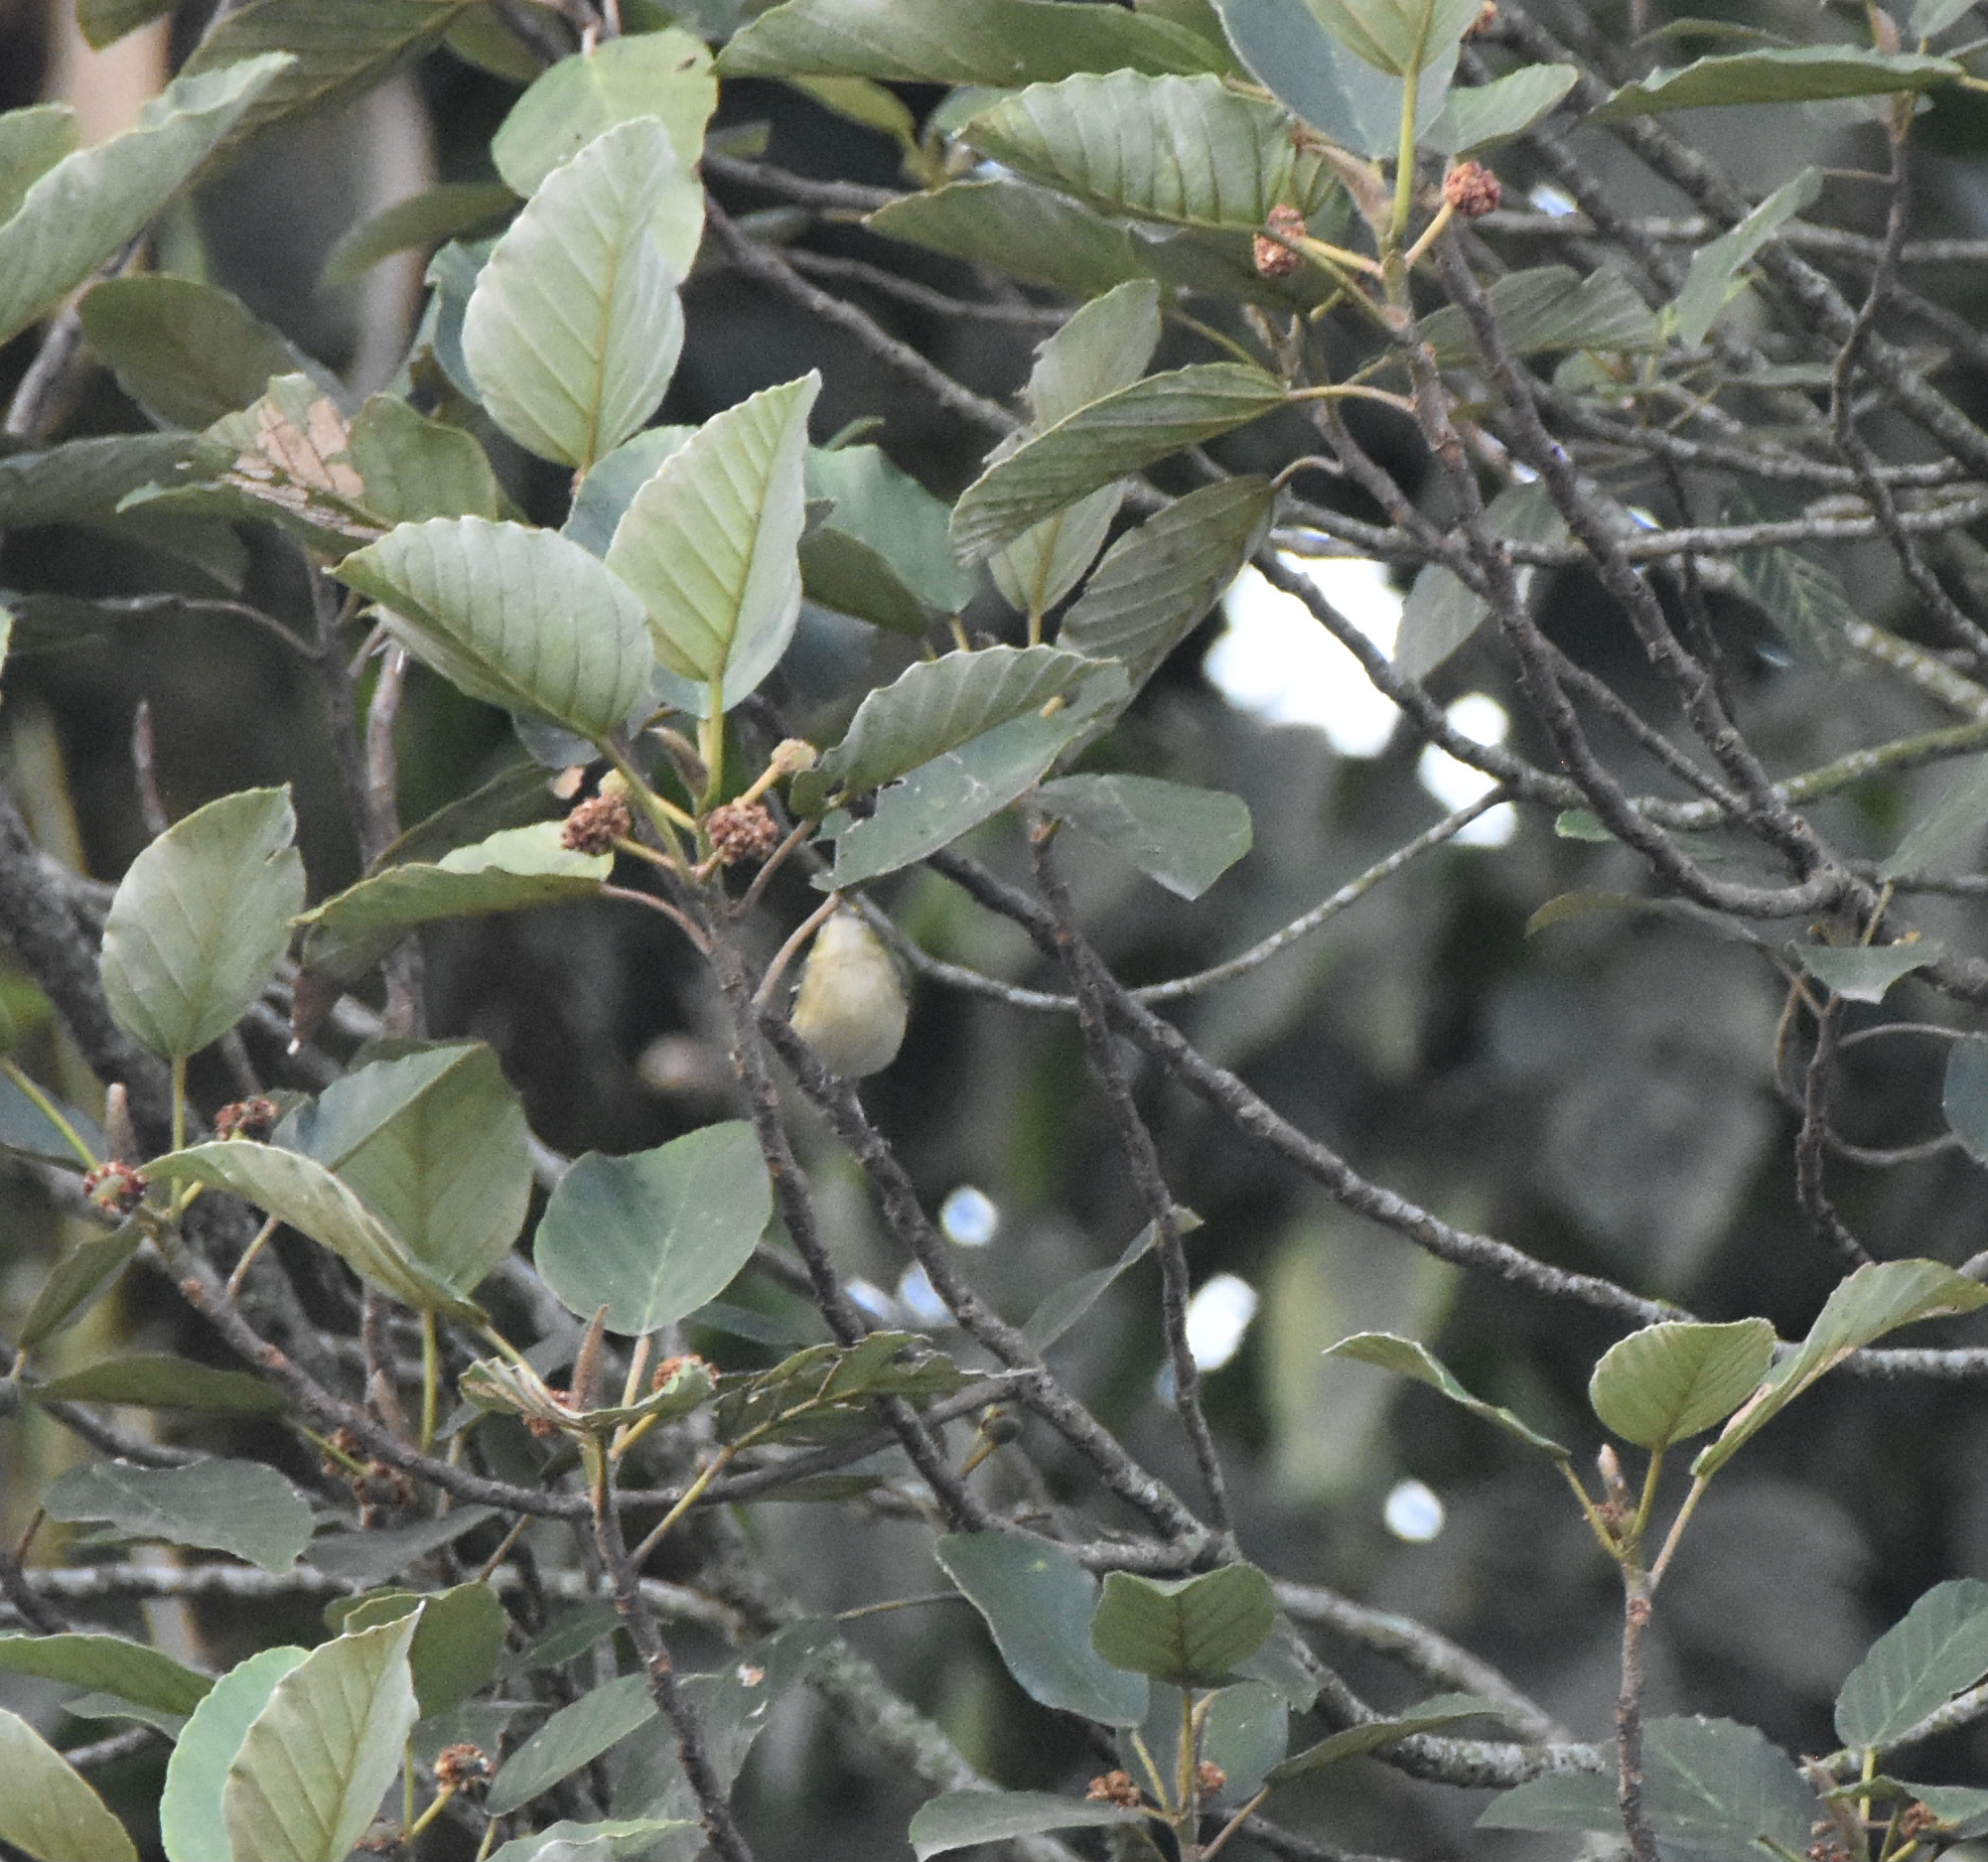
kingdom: Animalia
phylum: Chordata
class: Aves
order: Passeriformes
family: Parulidae
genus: Setophaga
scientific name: Setophaga castanea
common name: Bay-breasted warbler
